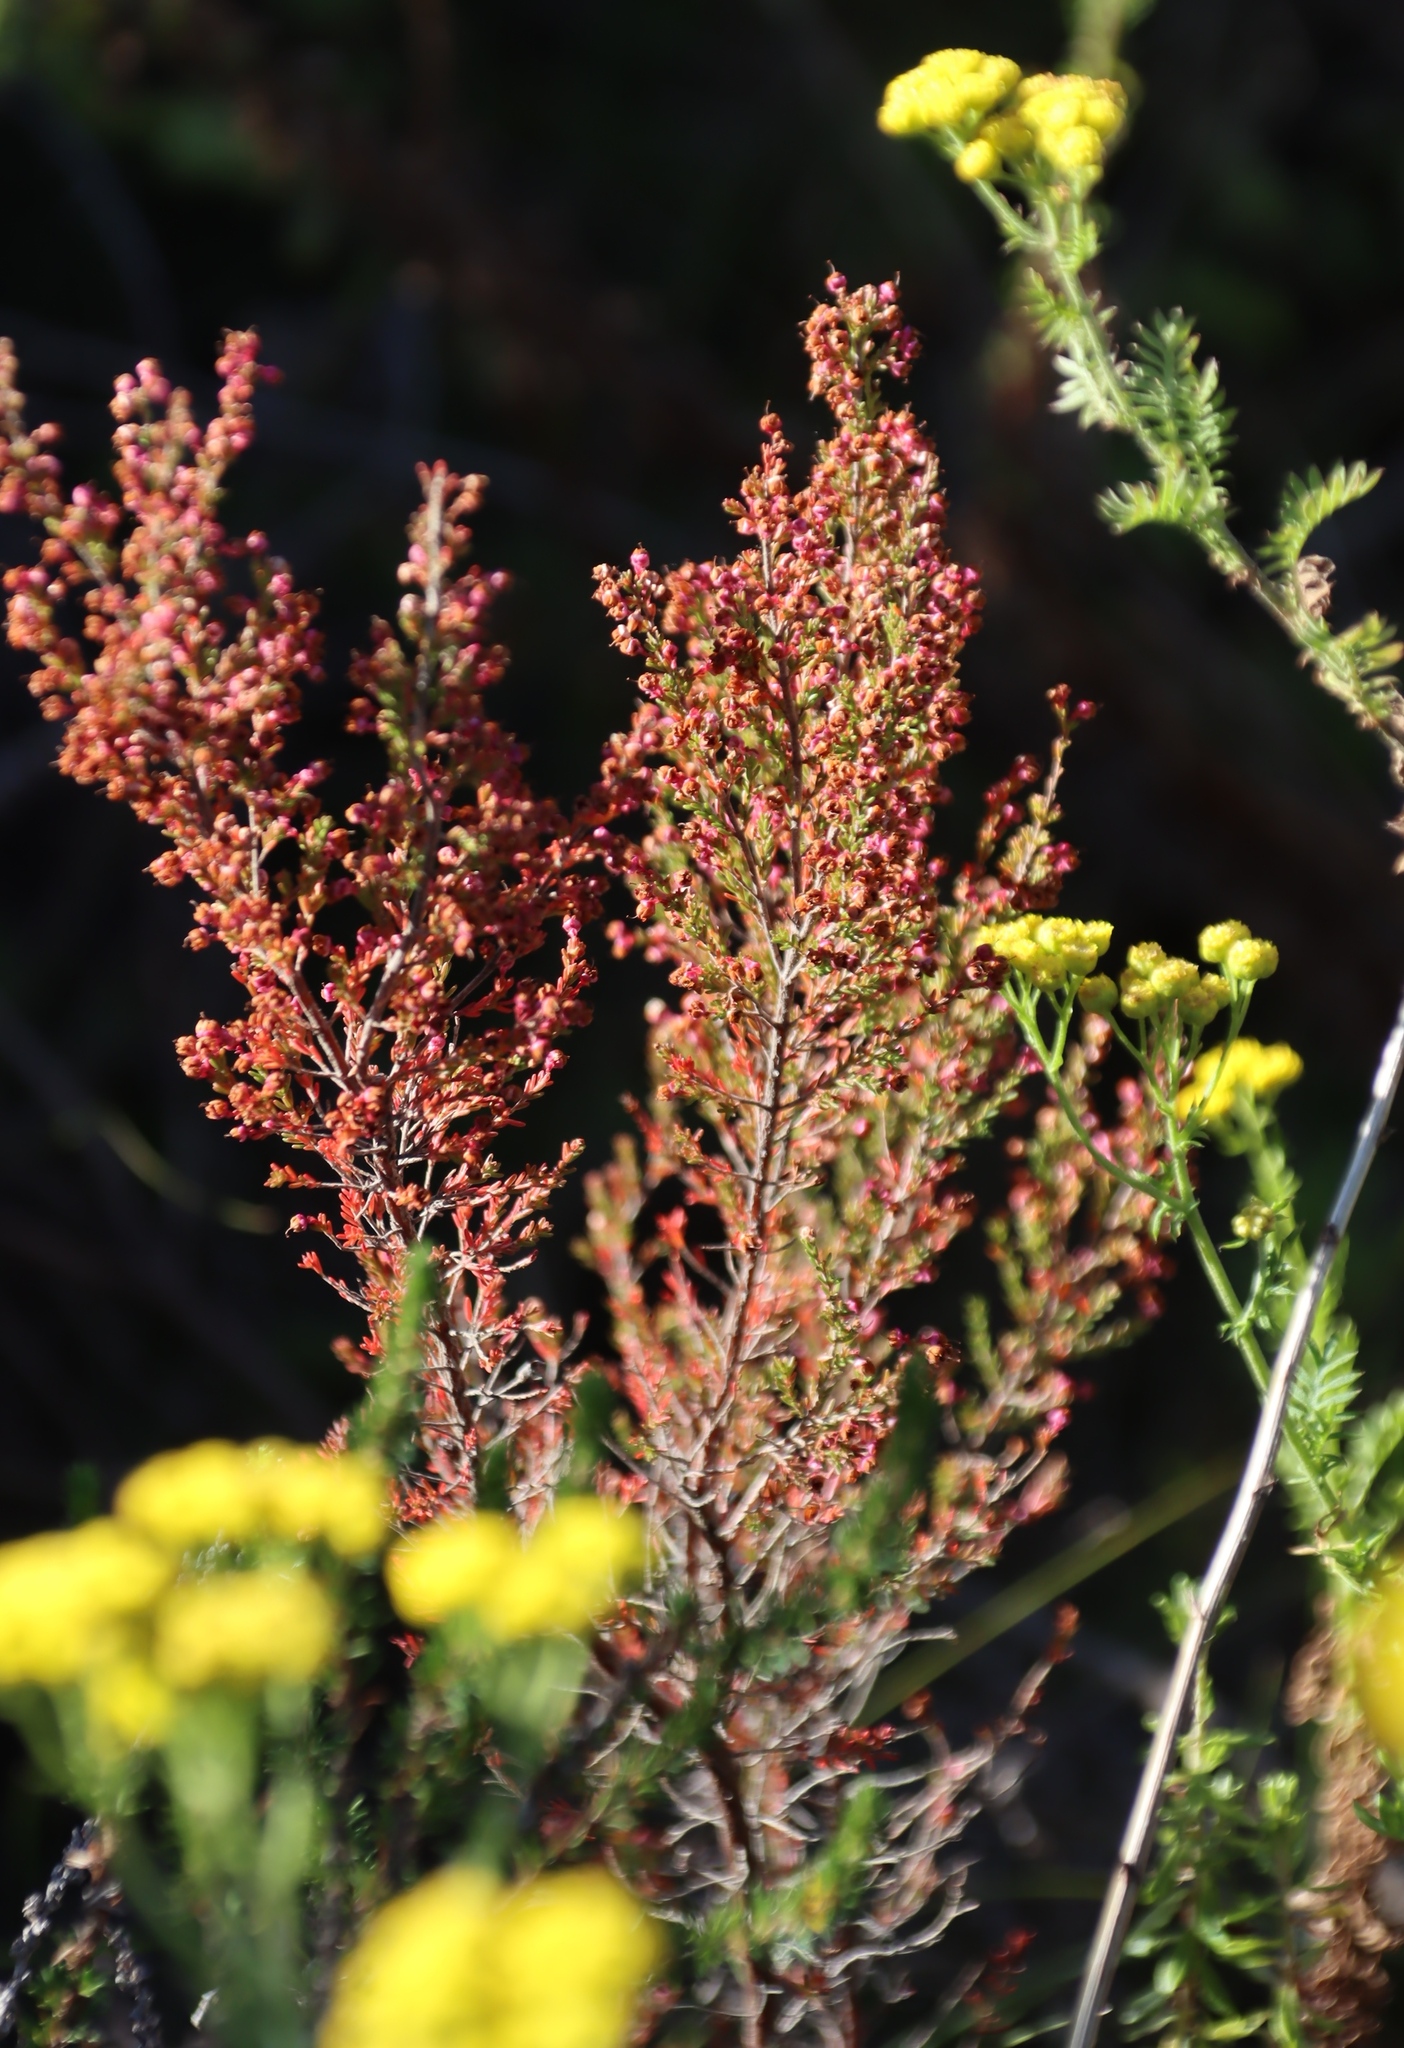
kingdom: Plantae
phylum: Tracheophyta
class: Magnoliopsida
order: Ericales
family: Ericaceae
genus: Erica
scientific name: Erica sparsa
